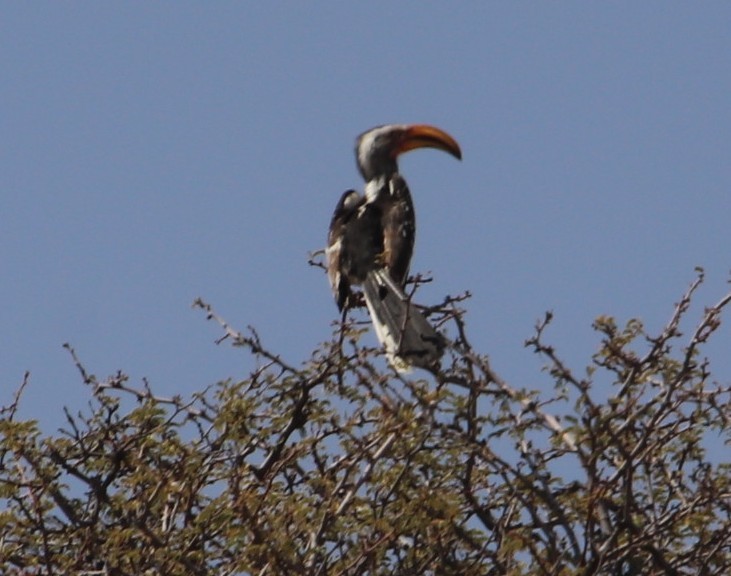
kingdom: Animalia
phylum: Chordata
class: Aves
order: Bucerotiformes
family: Bucerotidae
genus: Tockus
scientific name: Tockus leucomelas
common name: Southern yellow-billed hornbill
